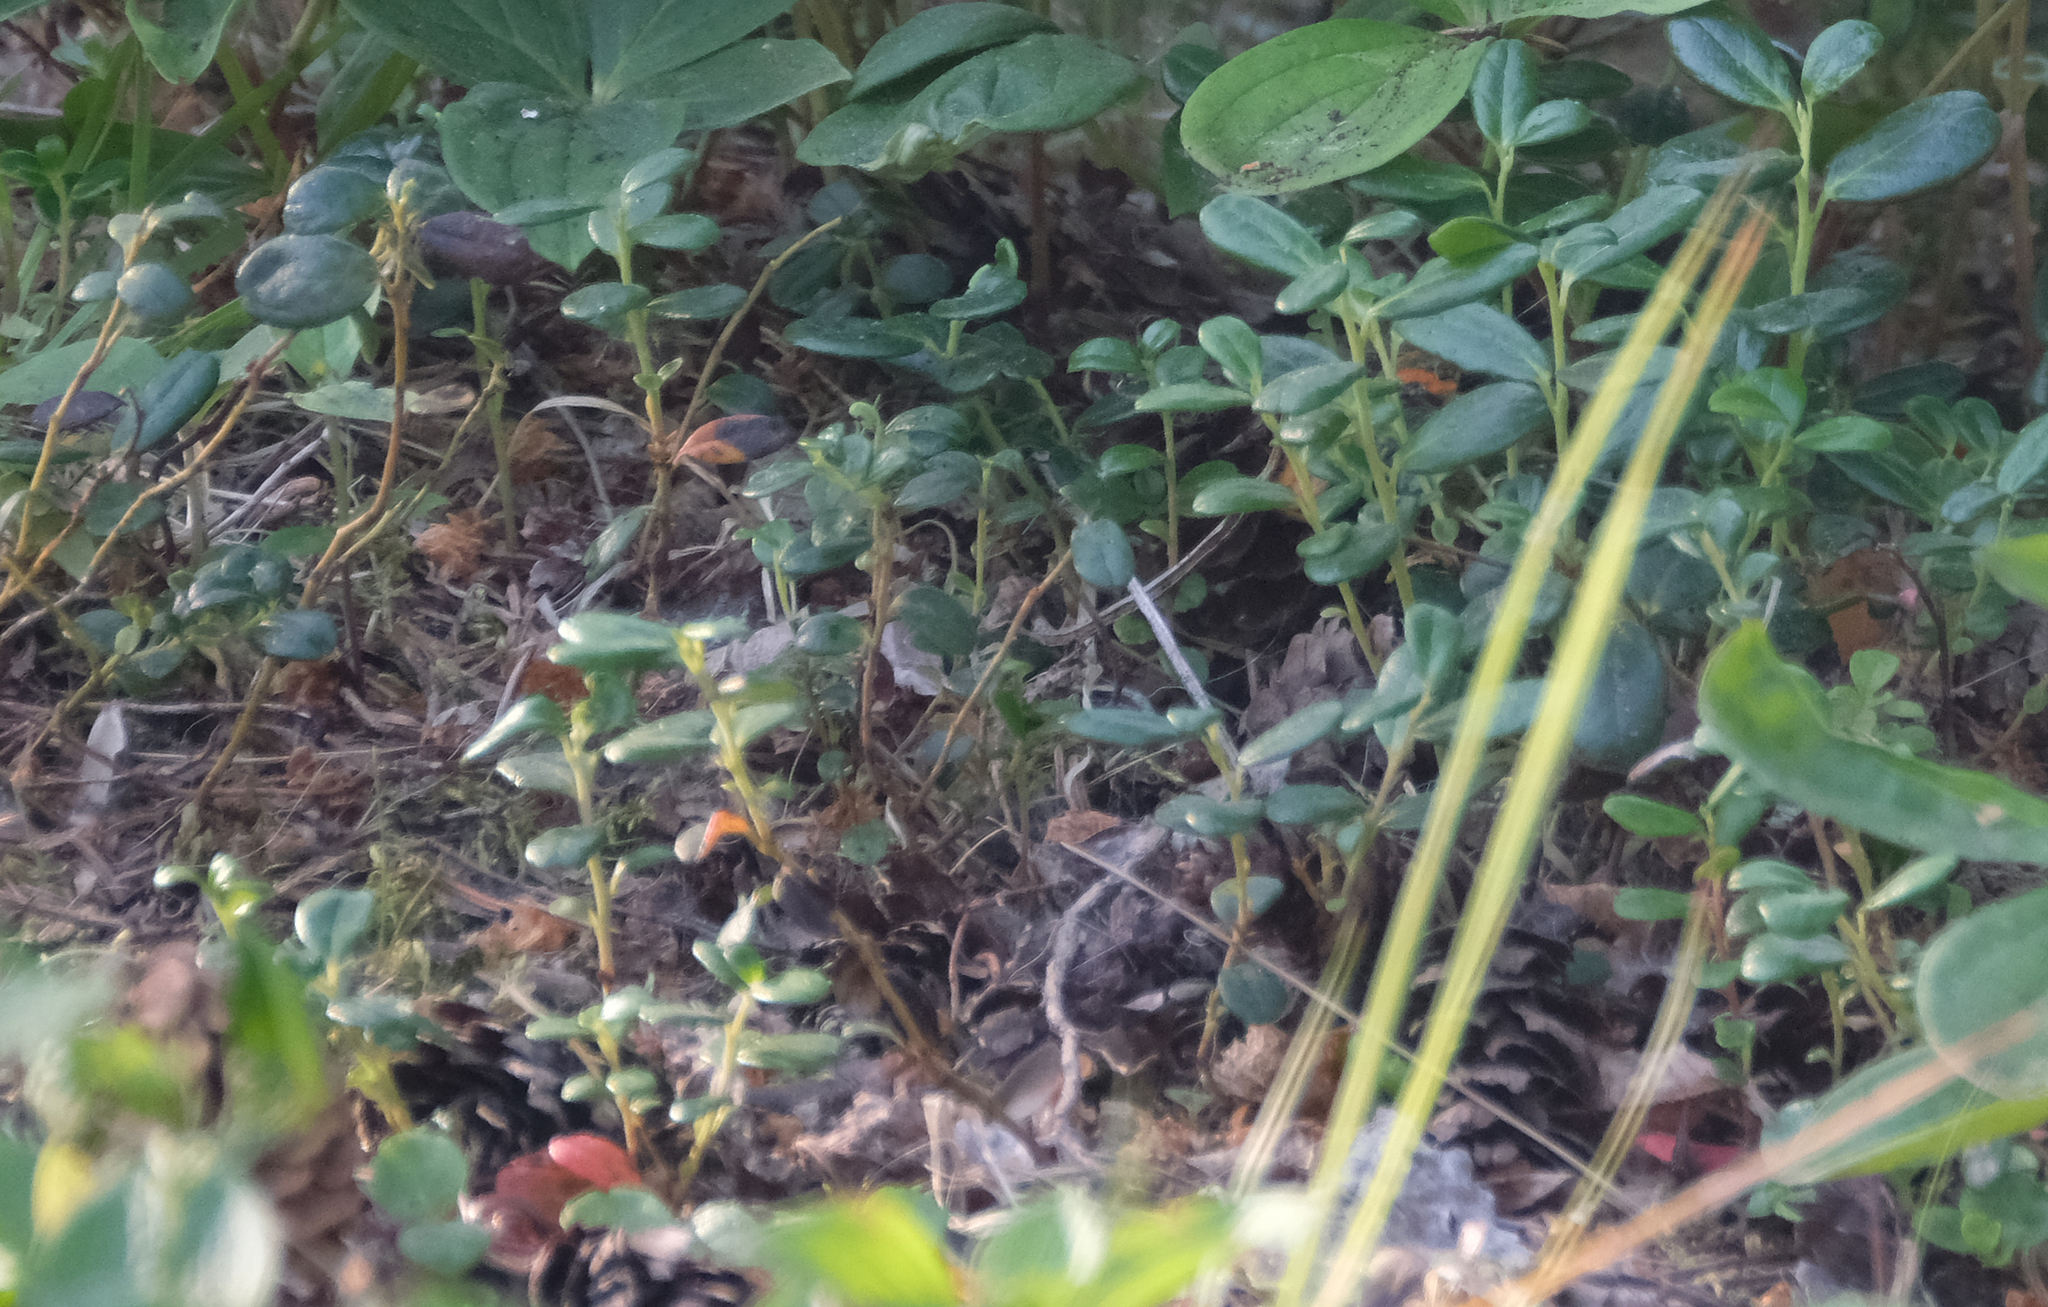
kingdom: Plantae
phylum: Tracheophyta
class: Magnoliopsida
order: Ericales
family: Ericaceae
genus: Vaccinium
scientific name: Vaccinium vitis-idaea
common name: Cowberry
